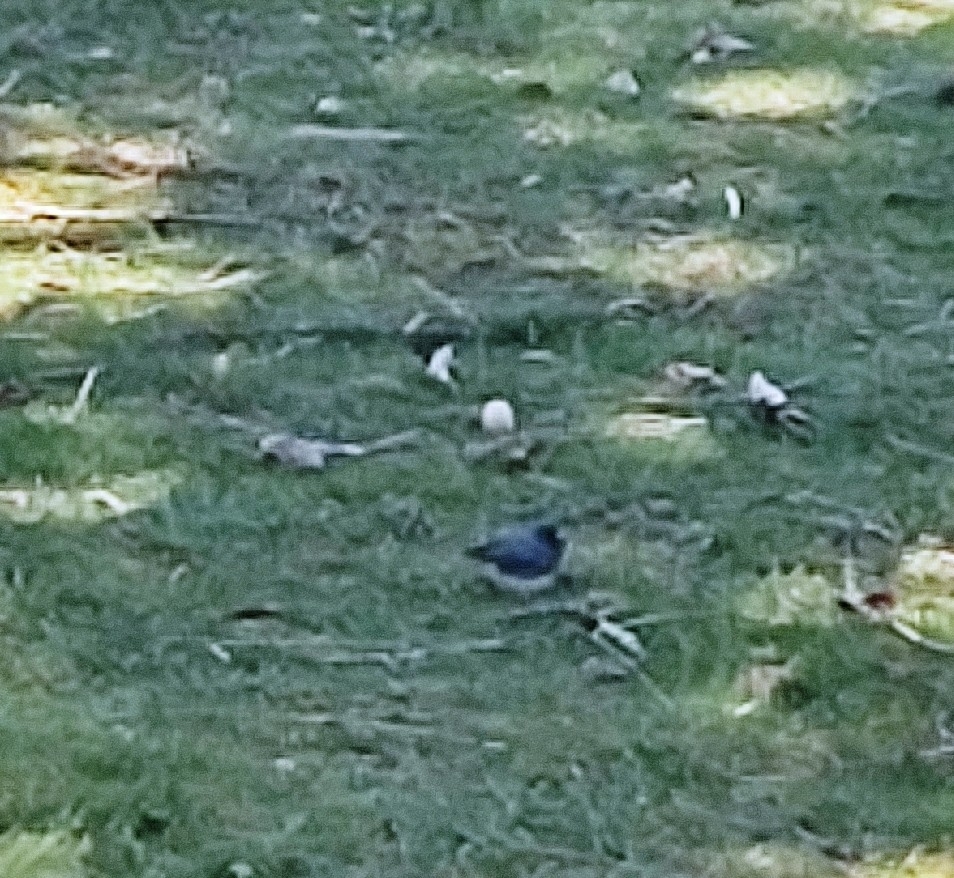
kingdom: Animalia
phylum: Chordata
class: Aves
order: Passeriformes
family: Passerellidae
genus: Junco
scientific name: Junco hyemalis
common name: Dark-eyed junco
